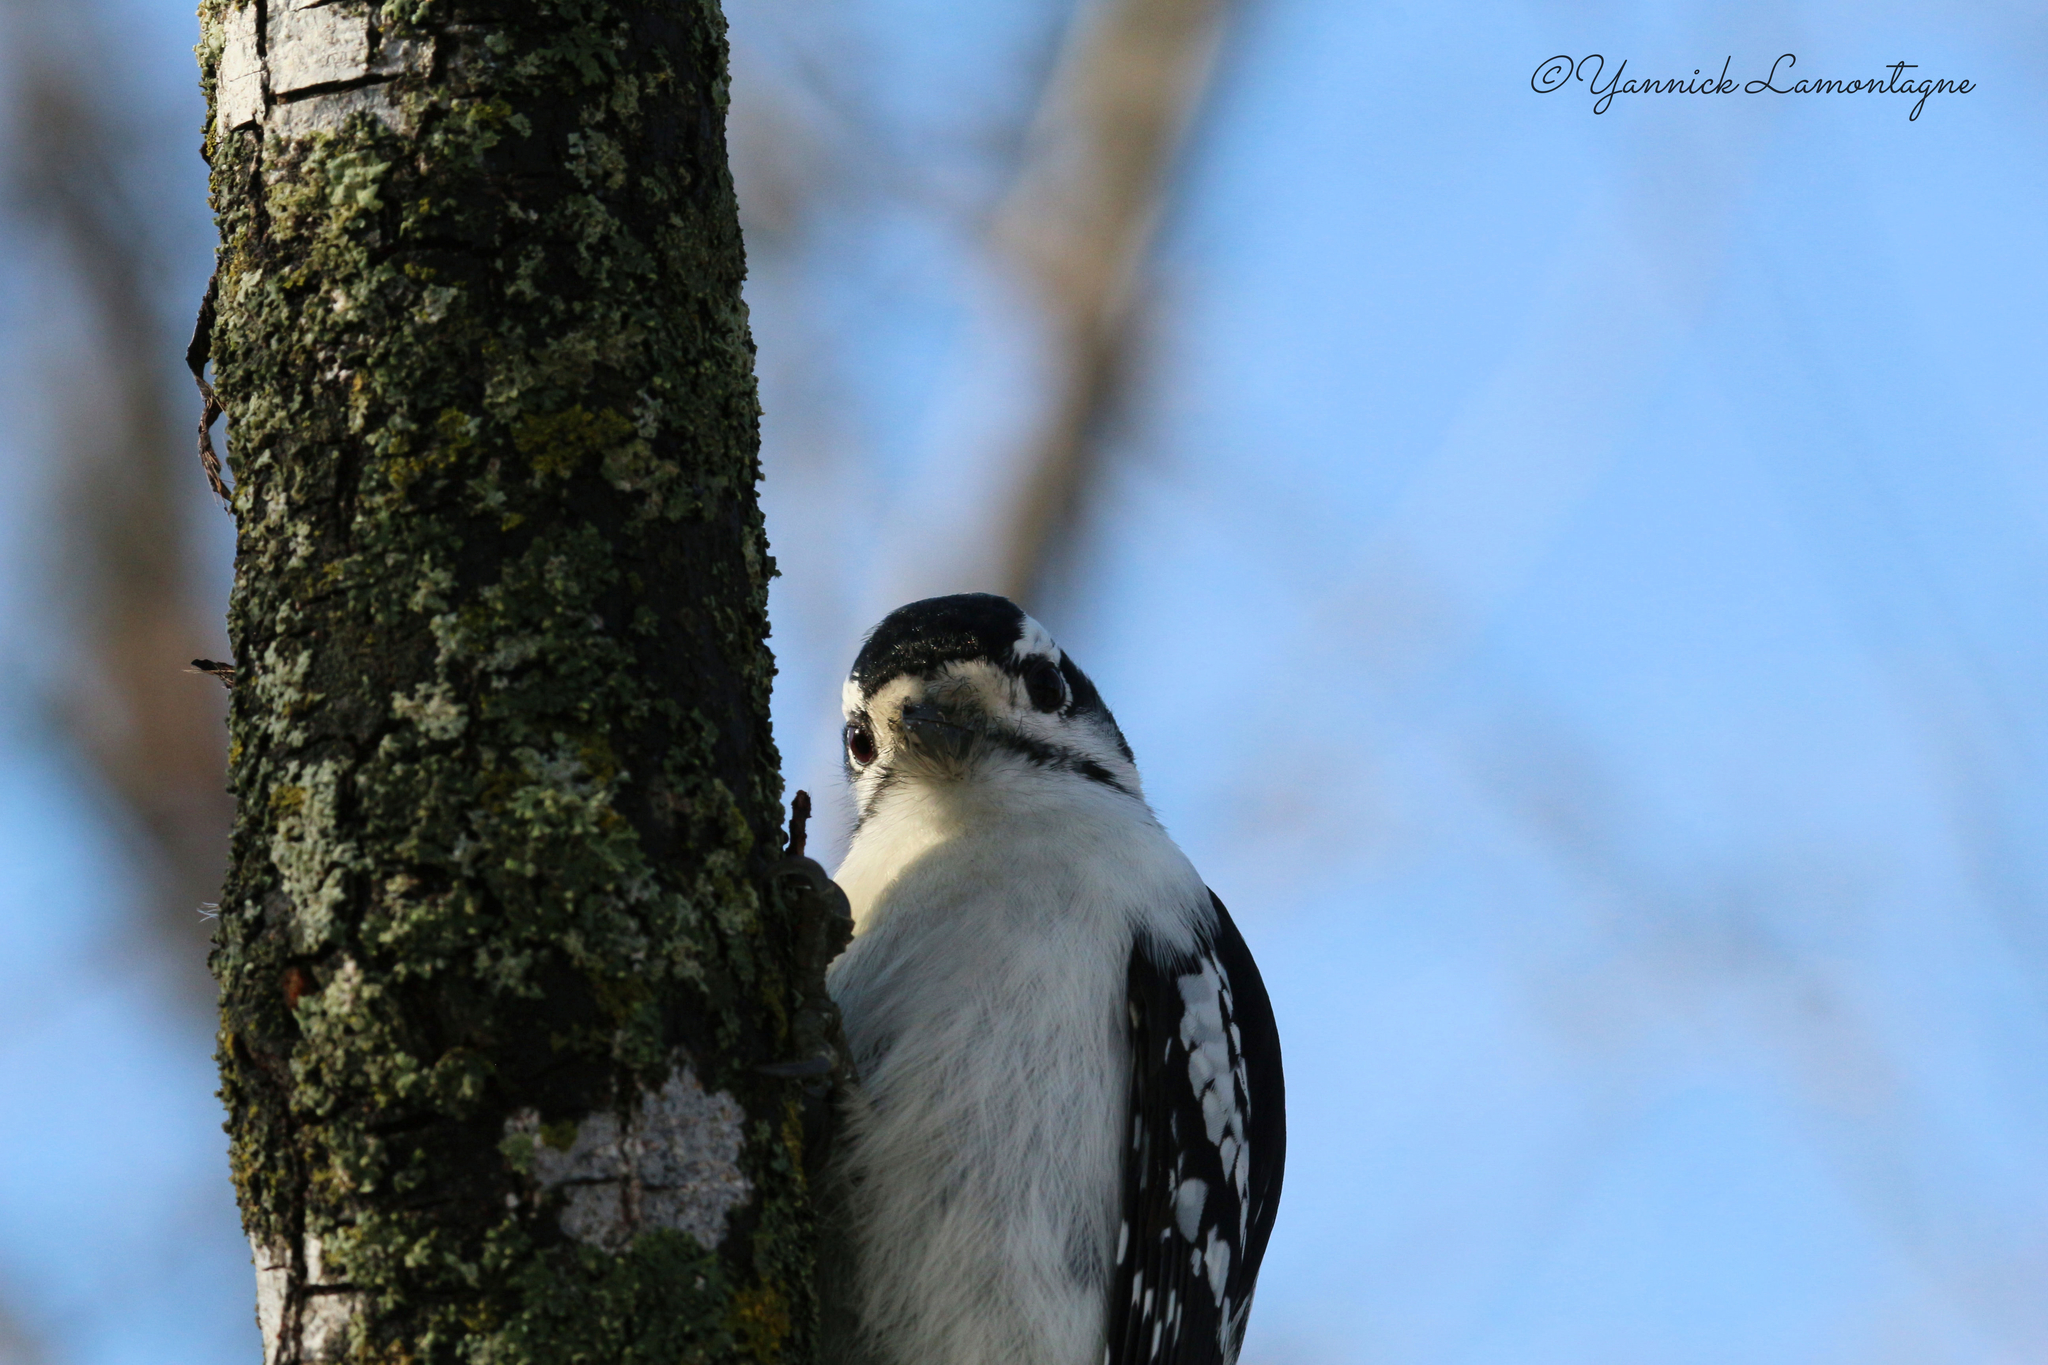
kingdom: Animalia
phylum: Chordata
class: Aves
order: Piciformes
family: Picidae
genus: Dryobates
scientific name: Dryobates pubescens
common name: Downy woodpecker
